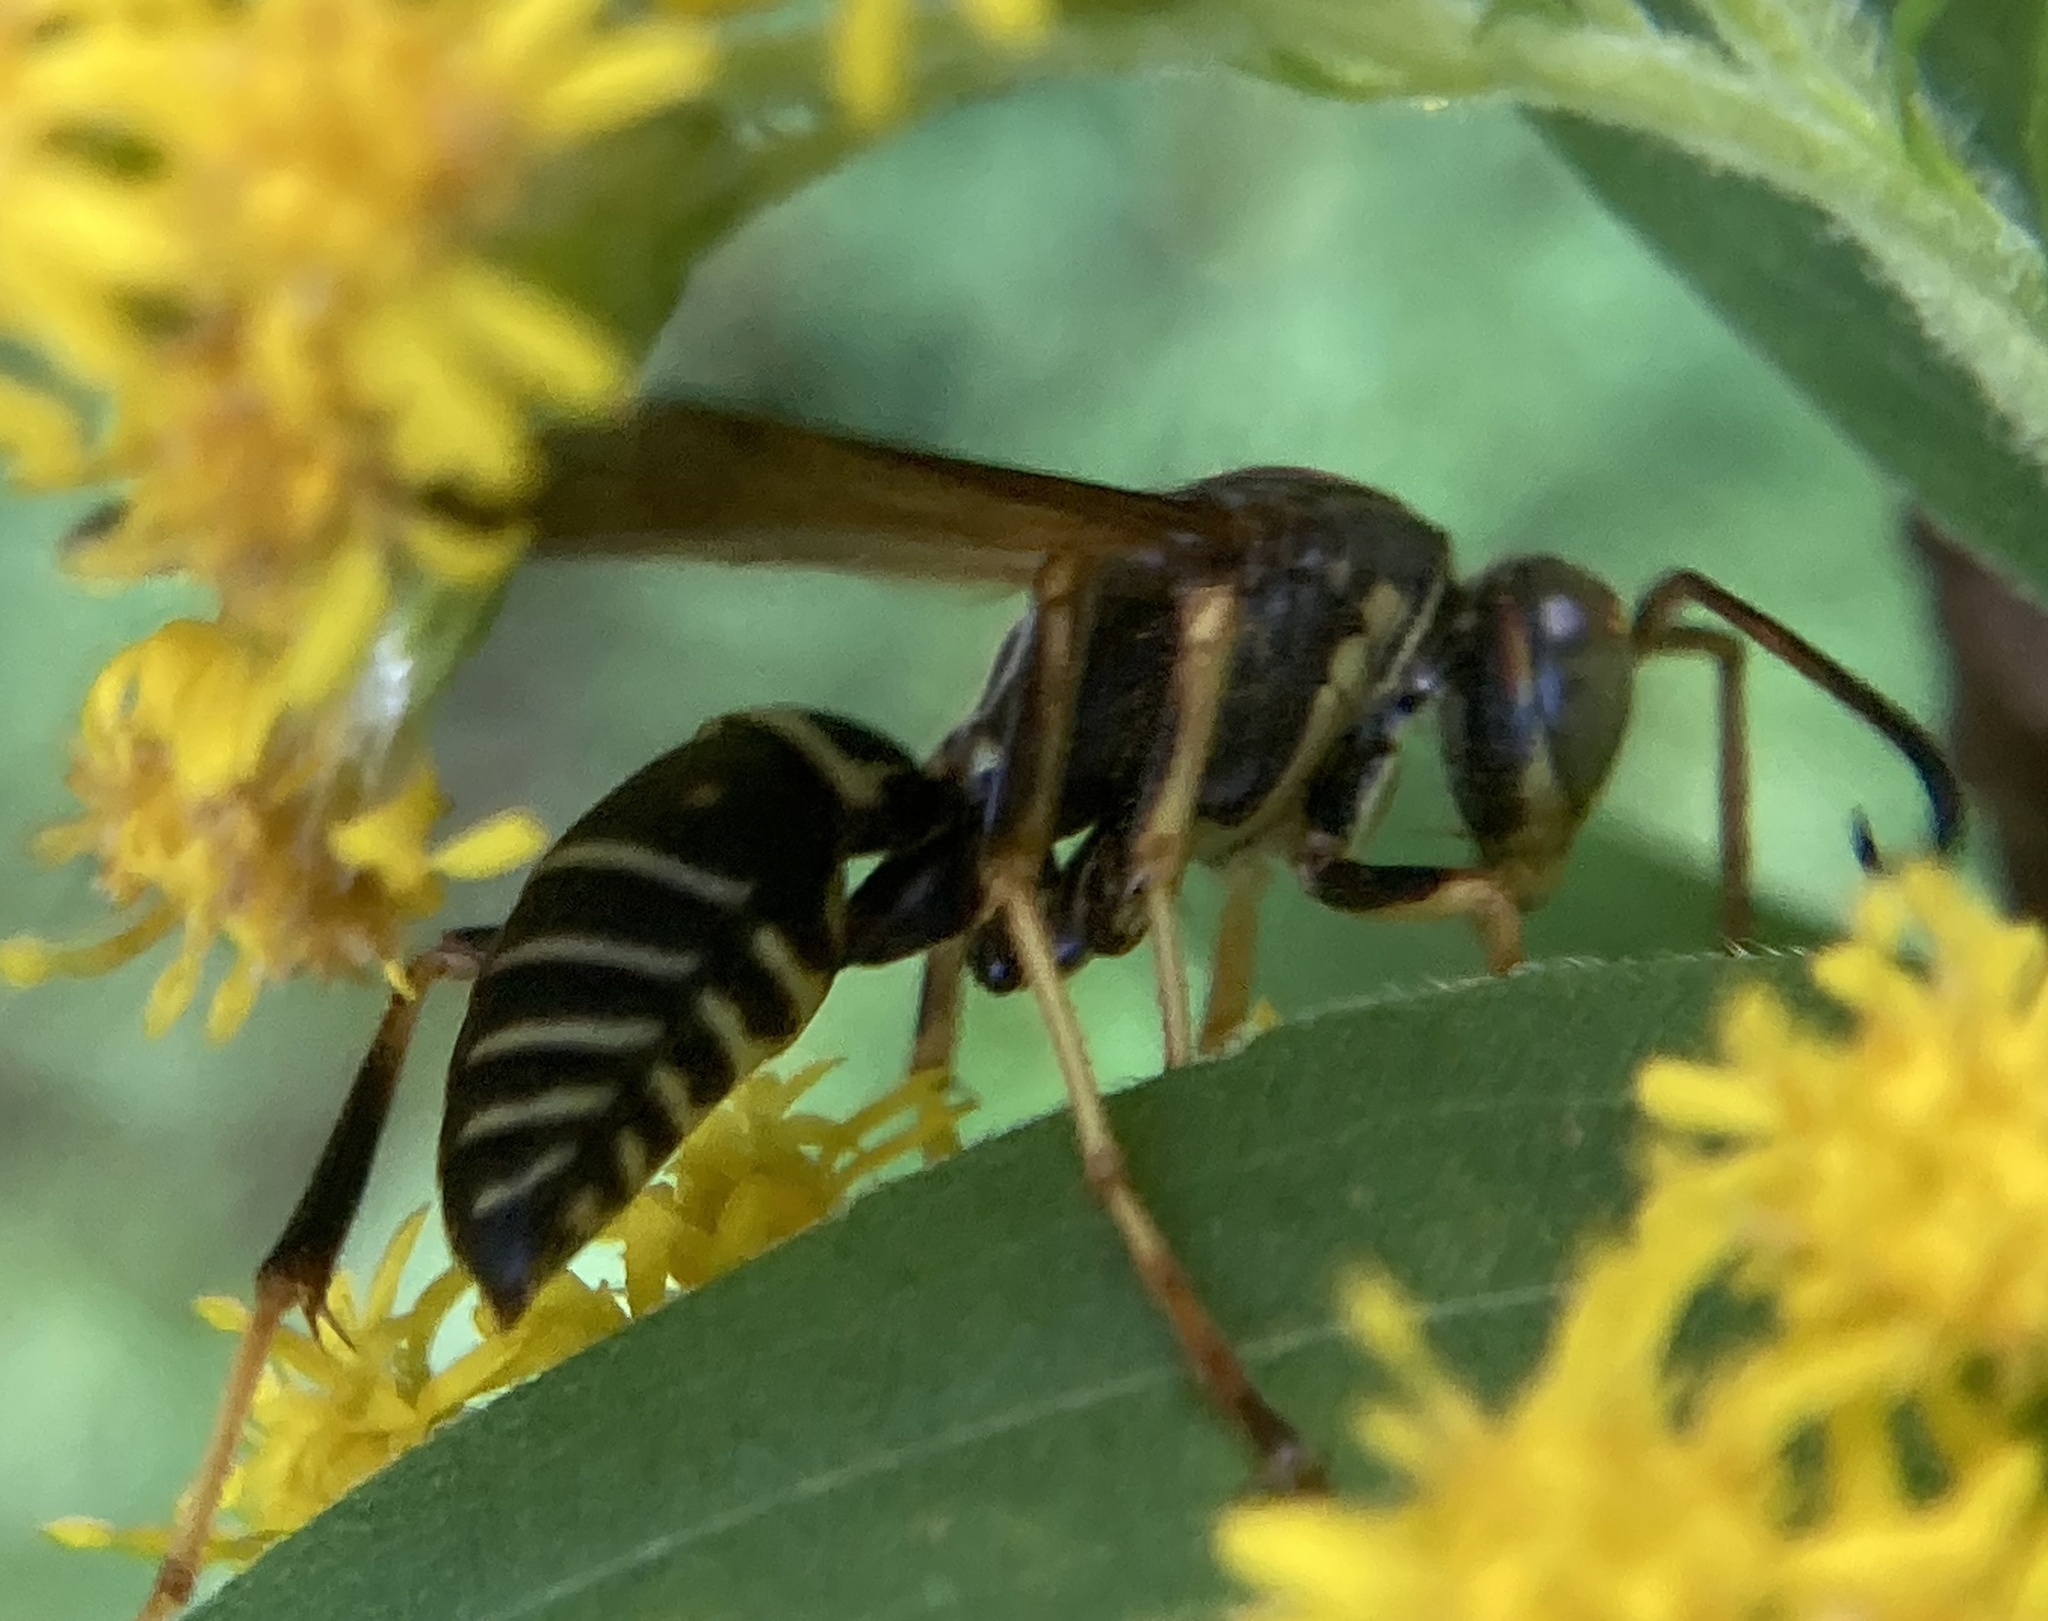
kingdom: Animalia
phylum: Arthropoda
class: Insecta
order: Hymenoptera
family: Eumenidae
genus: Polistes
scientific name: Polistes fuscatus
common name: Dark paper wasp
